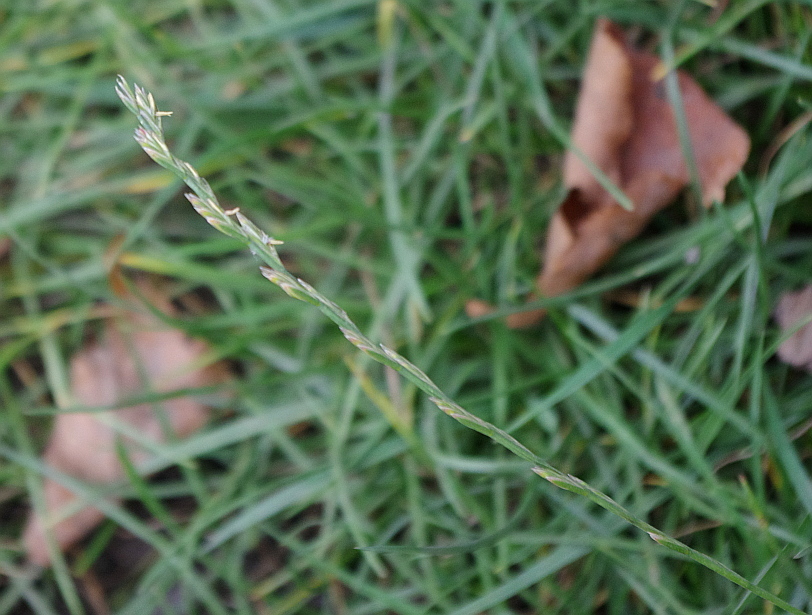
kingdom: Plantae
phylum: Tracheophyta
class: Liliopsida
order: Poales
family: Poaceae
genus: Lolium
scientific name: Lolium perenne
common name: Perennial ryegrass
